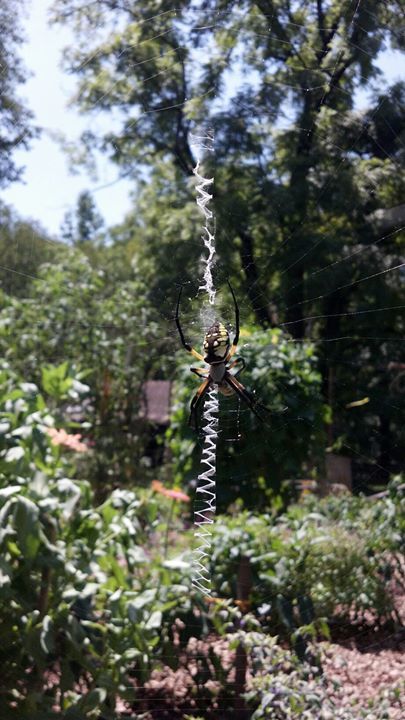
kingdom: Animalia
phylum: Arthropoda
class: Arachnida
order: Araneae
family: Araneidae
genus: Argiope
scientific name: Argiope aurantia
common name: Orb weavers
